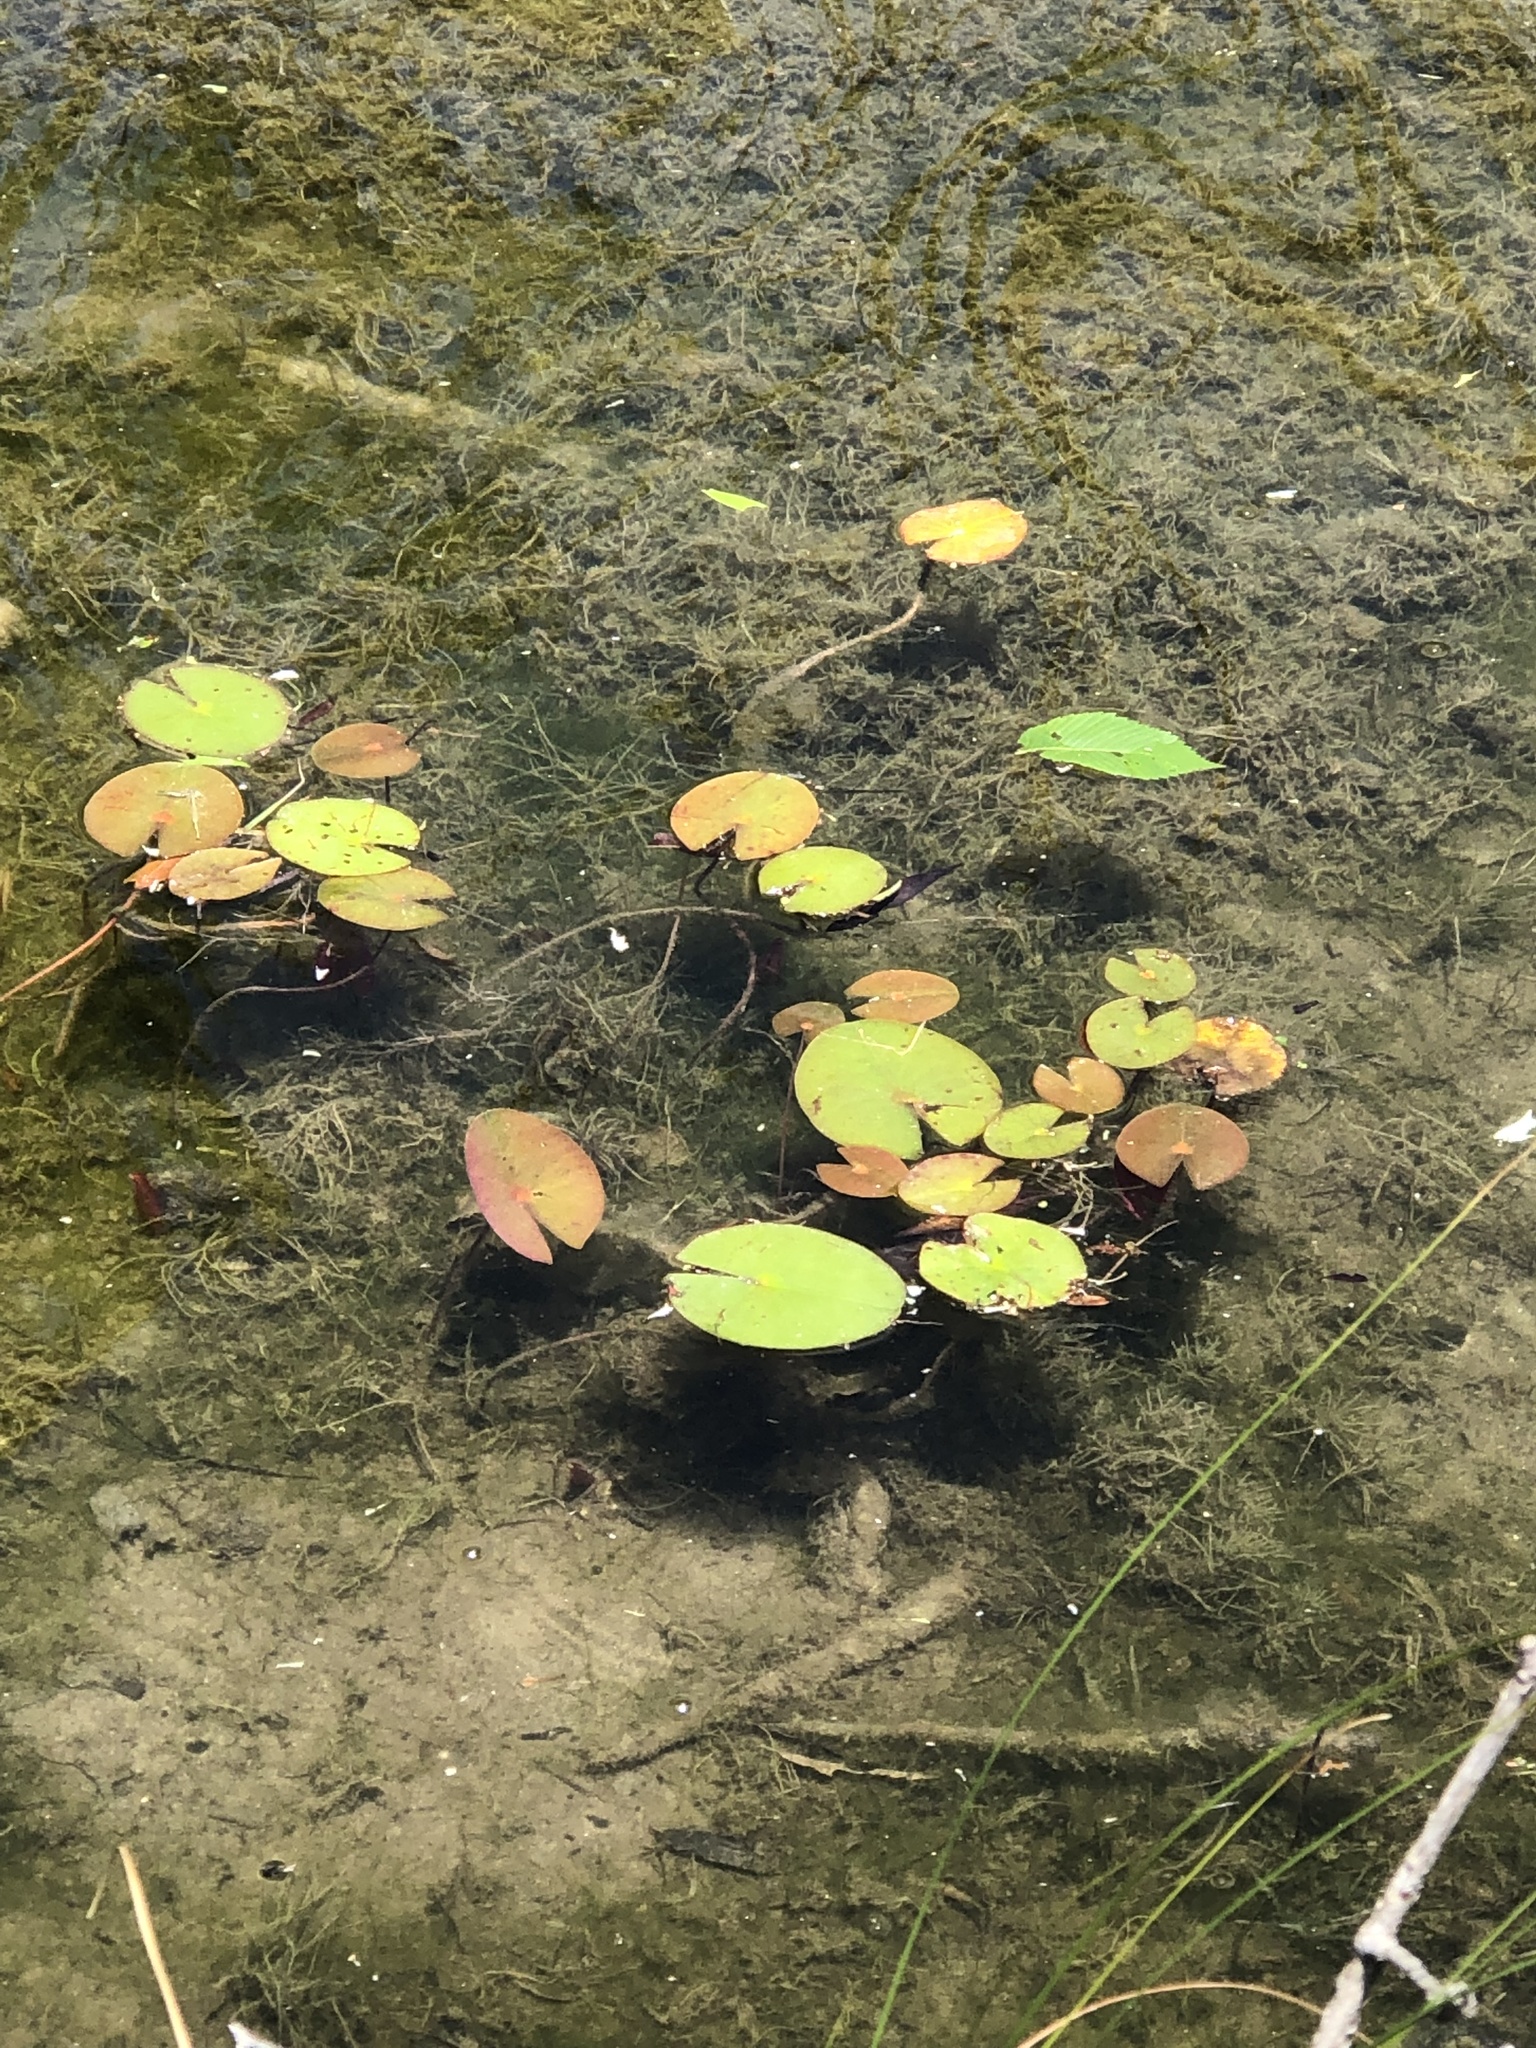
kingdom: Plantae
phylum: Tracheophyta
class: Magnoliopsida
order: Nymphaeales
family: Nymphaeaceae
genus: Nymphaea
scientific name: Nymphaea odorata
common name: Fragrant water-lily
